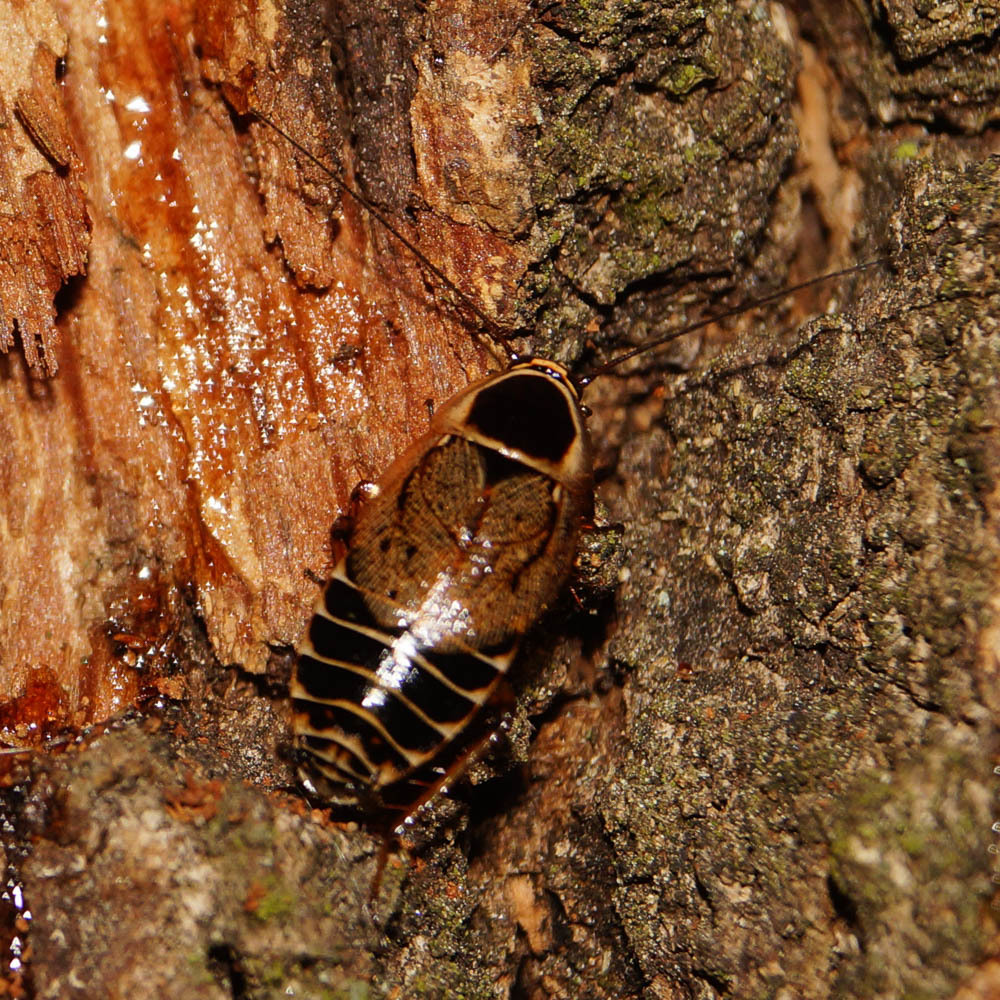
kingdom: Animalia
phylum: Arthropoda
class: Insecta
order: Blattodea
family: Ectobiidae
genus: Ectobius
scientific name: Ectobius sylvestris
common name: Forest cockroach
